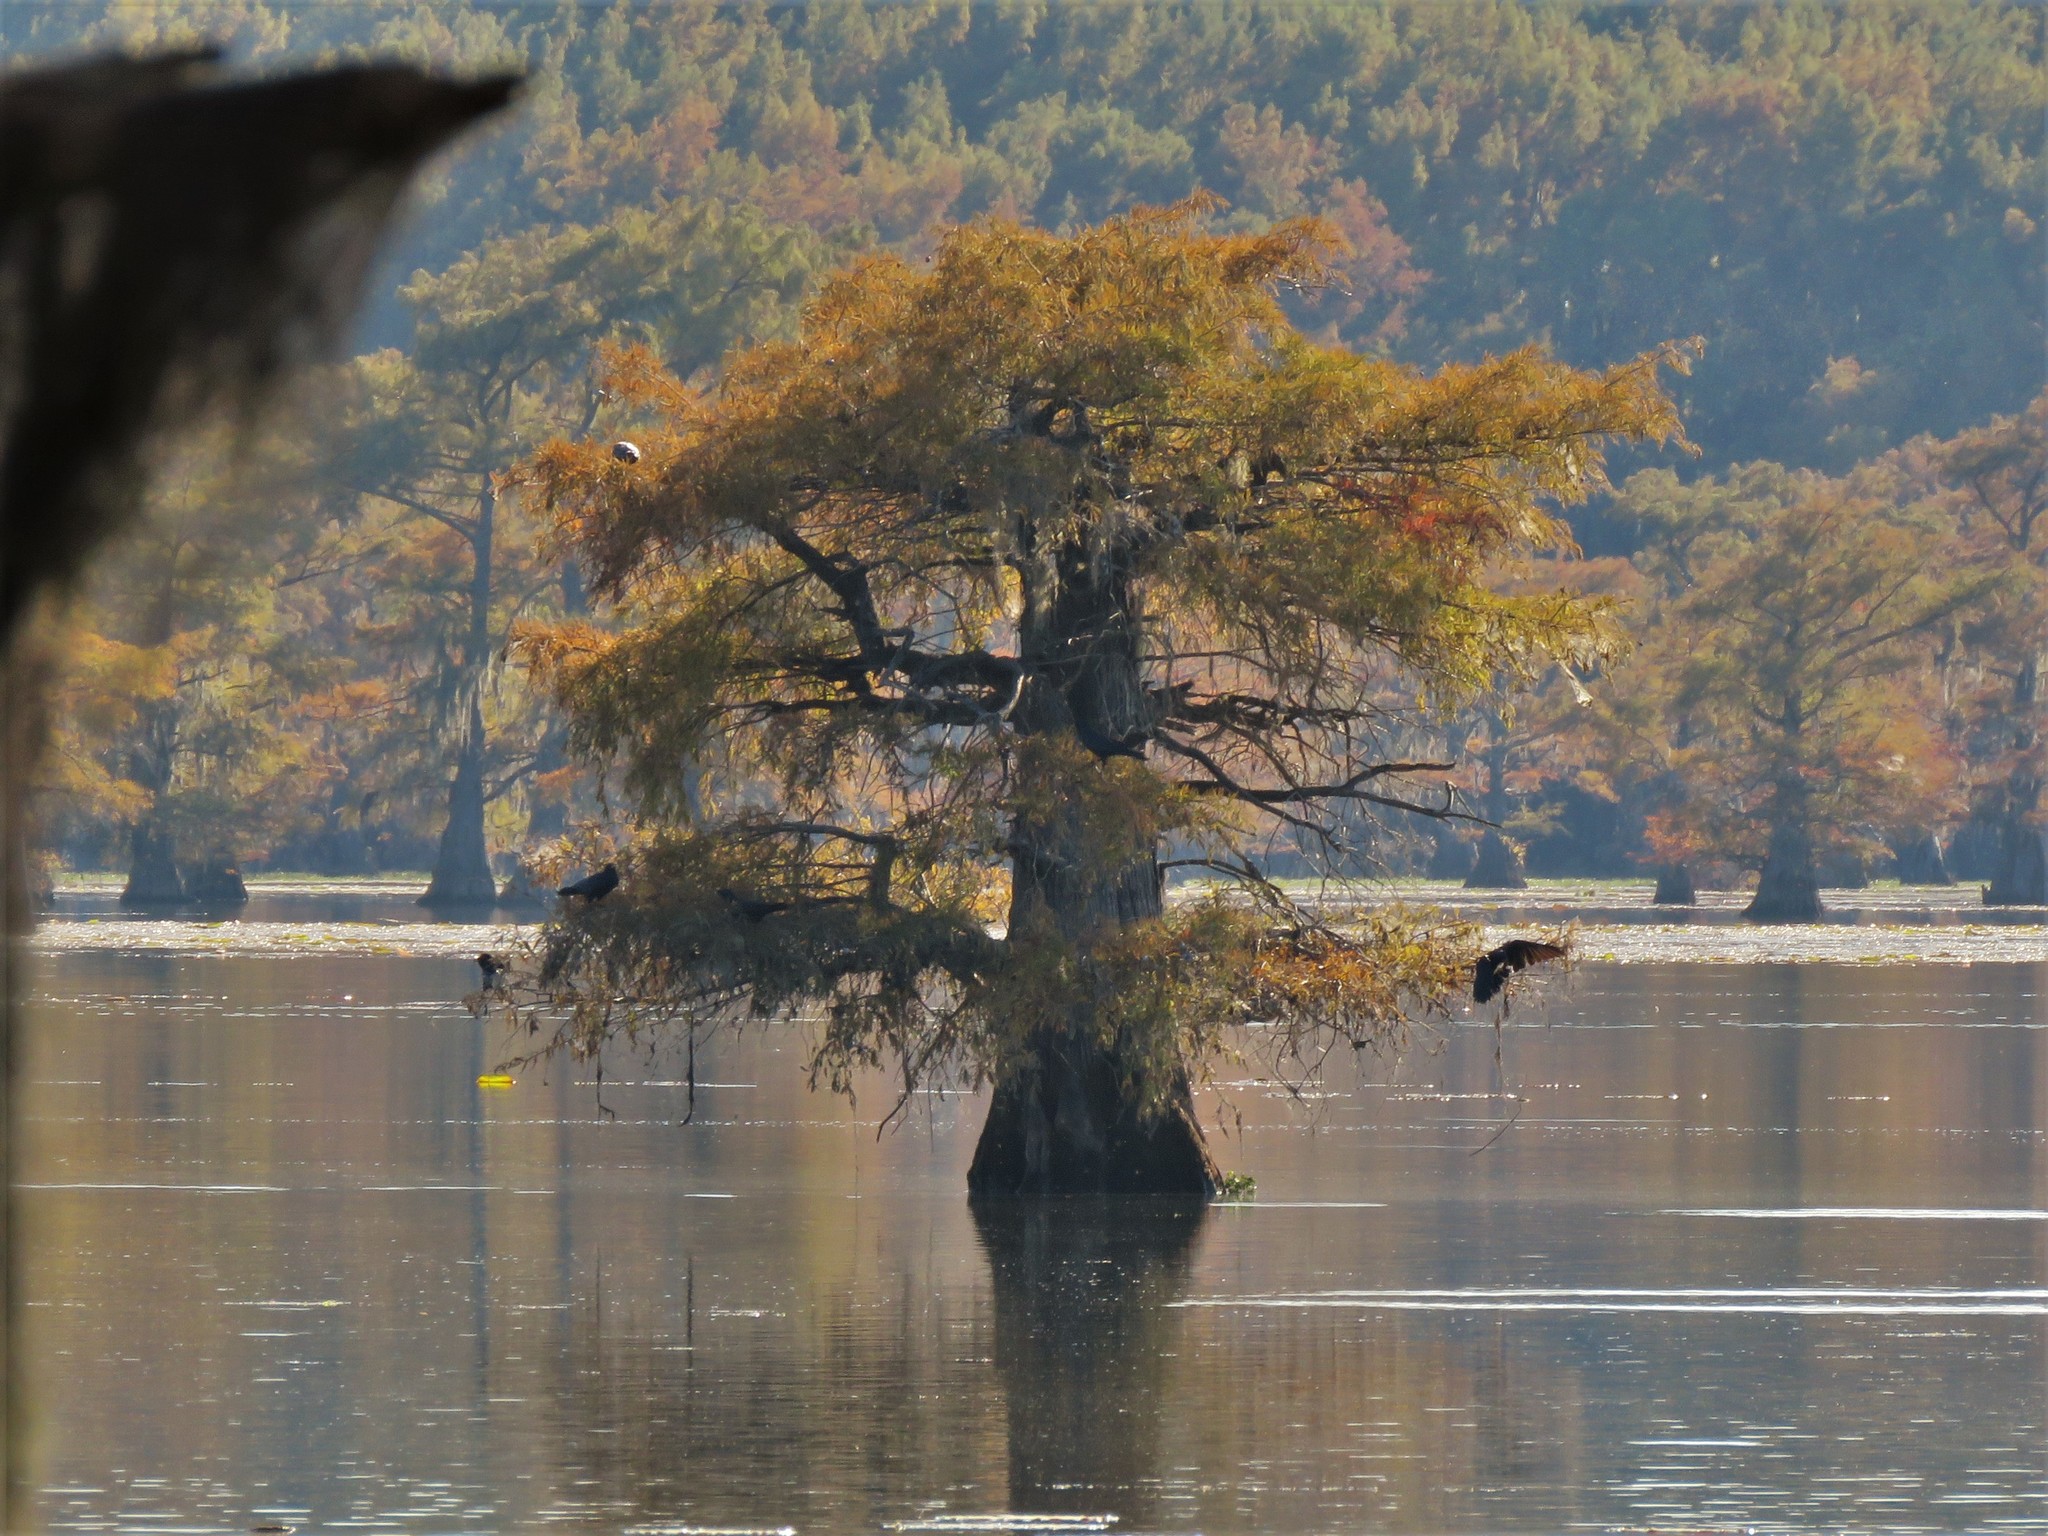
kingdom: Plantae
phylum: Tracheophyta
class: Pinopsida
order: Pinales
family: Cupressaceae
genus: Taxodium
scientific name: Taxodium distichum
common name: Bald cypress
